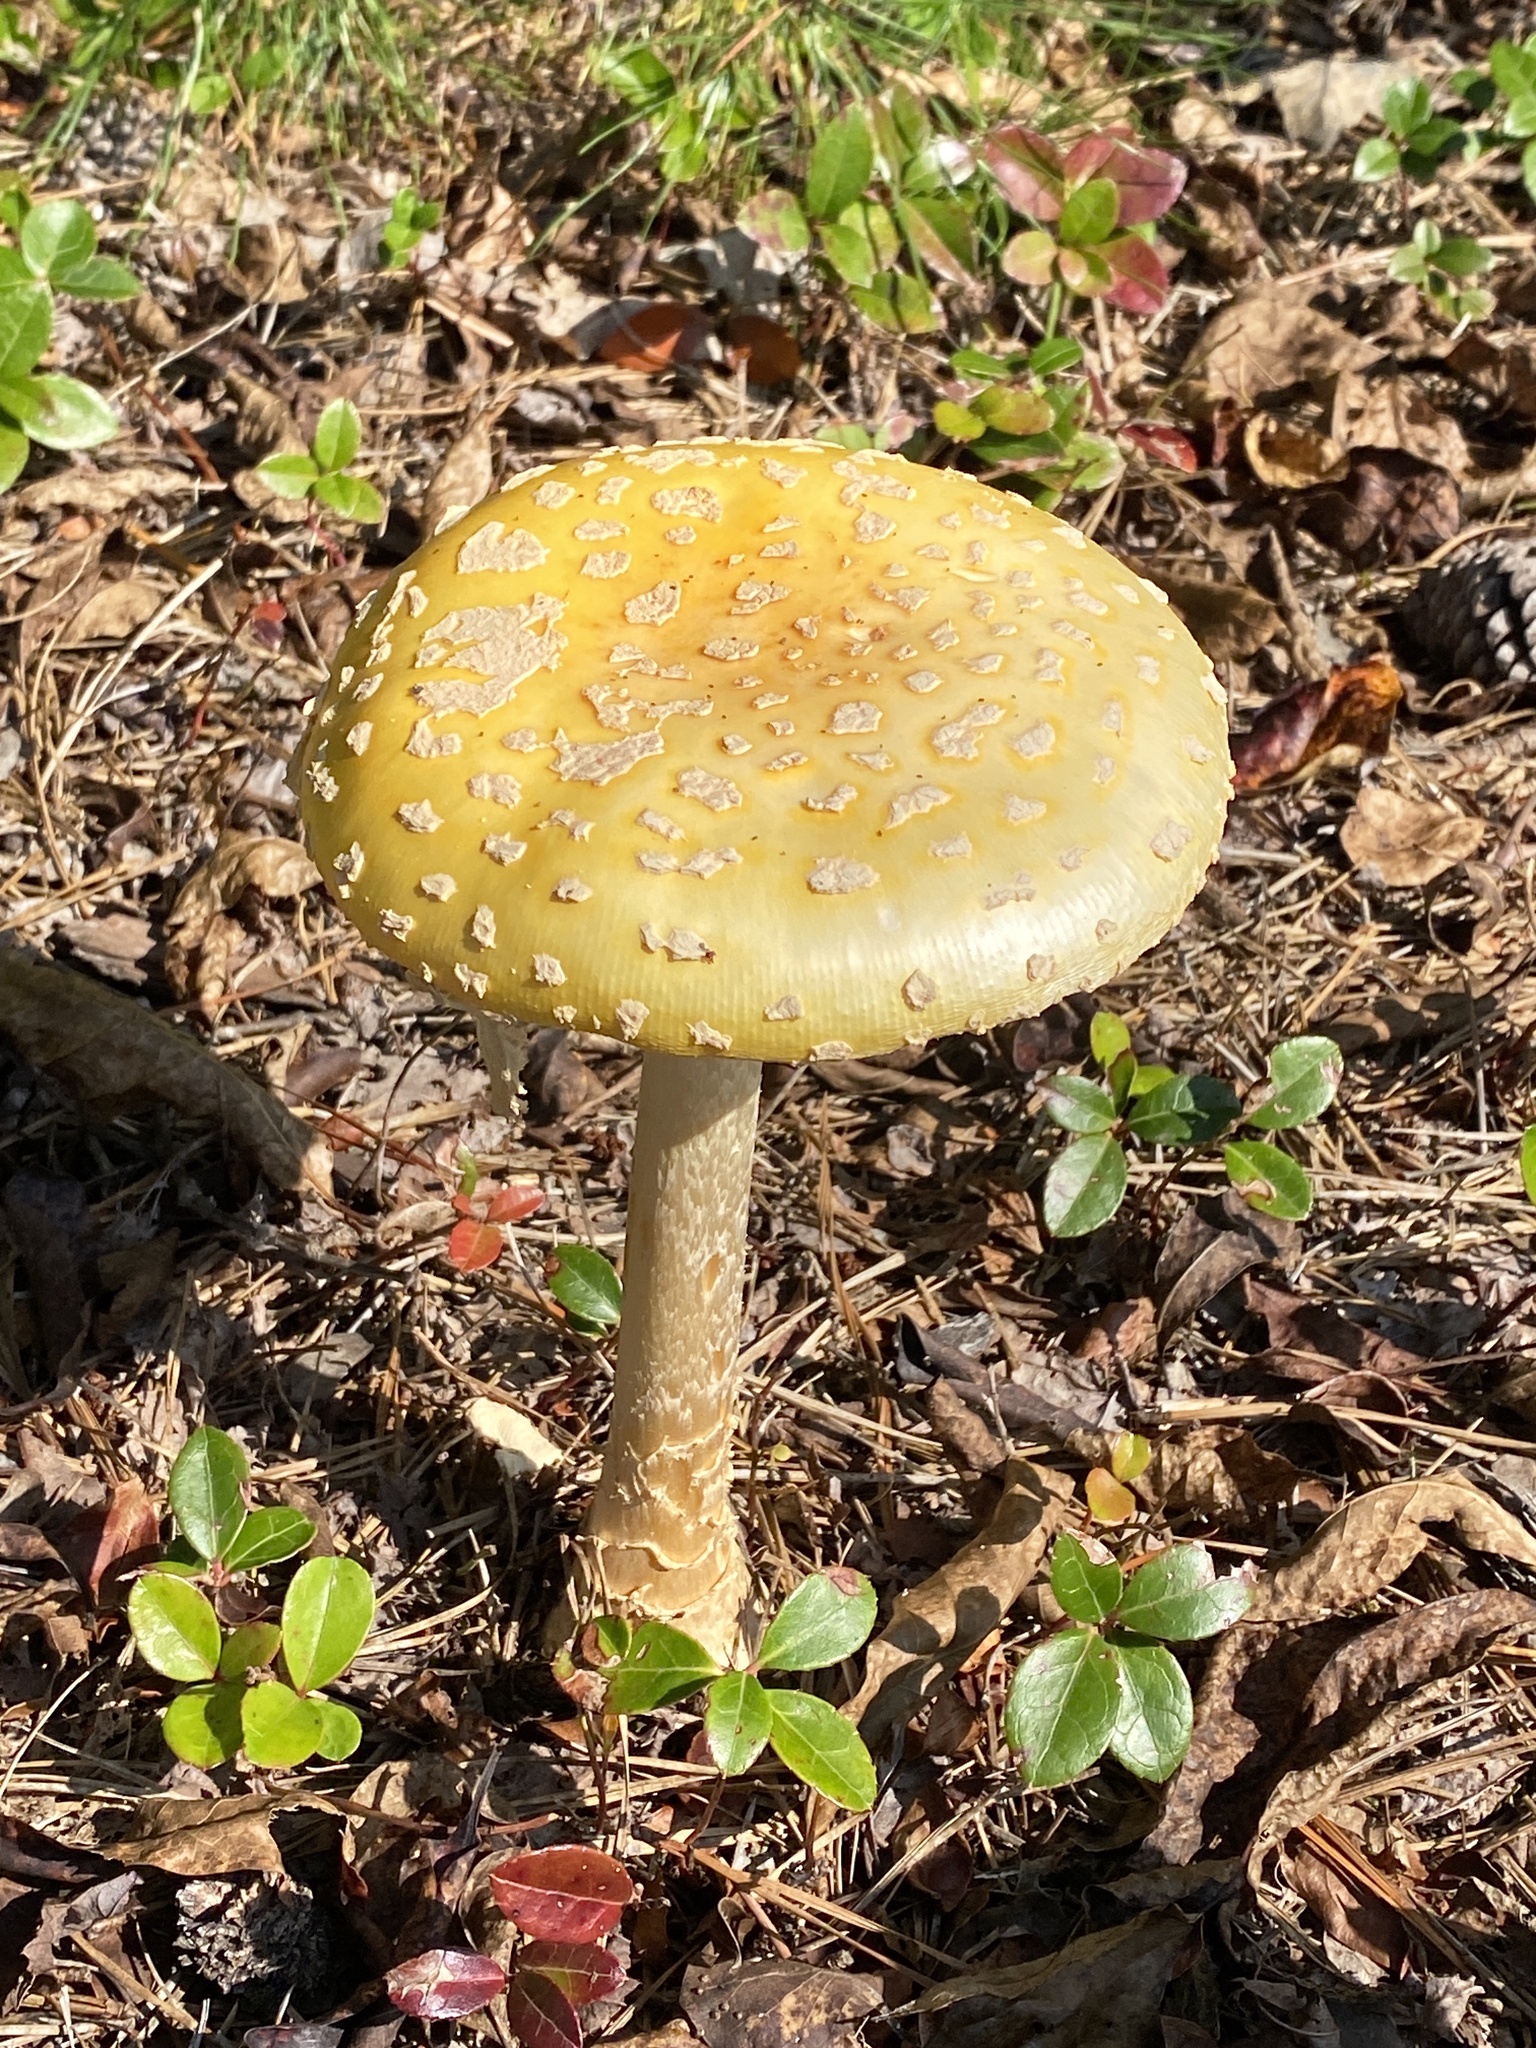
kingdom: Fungi
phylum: Basidiomycota
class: Agaricomycetes
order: Agaricales
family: Amanitaceae
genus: Amanita
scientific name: Amanita muscaria
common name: Fly agaric
